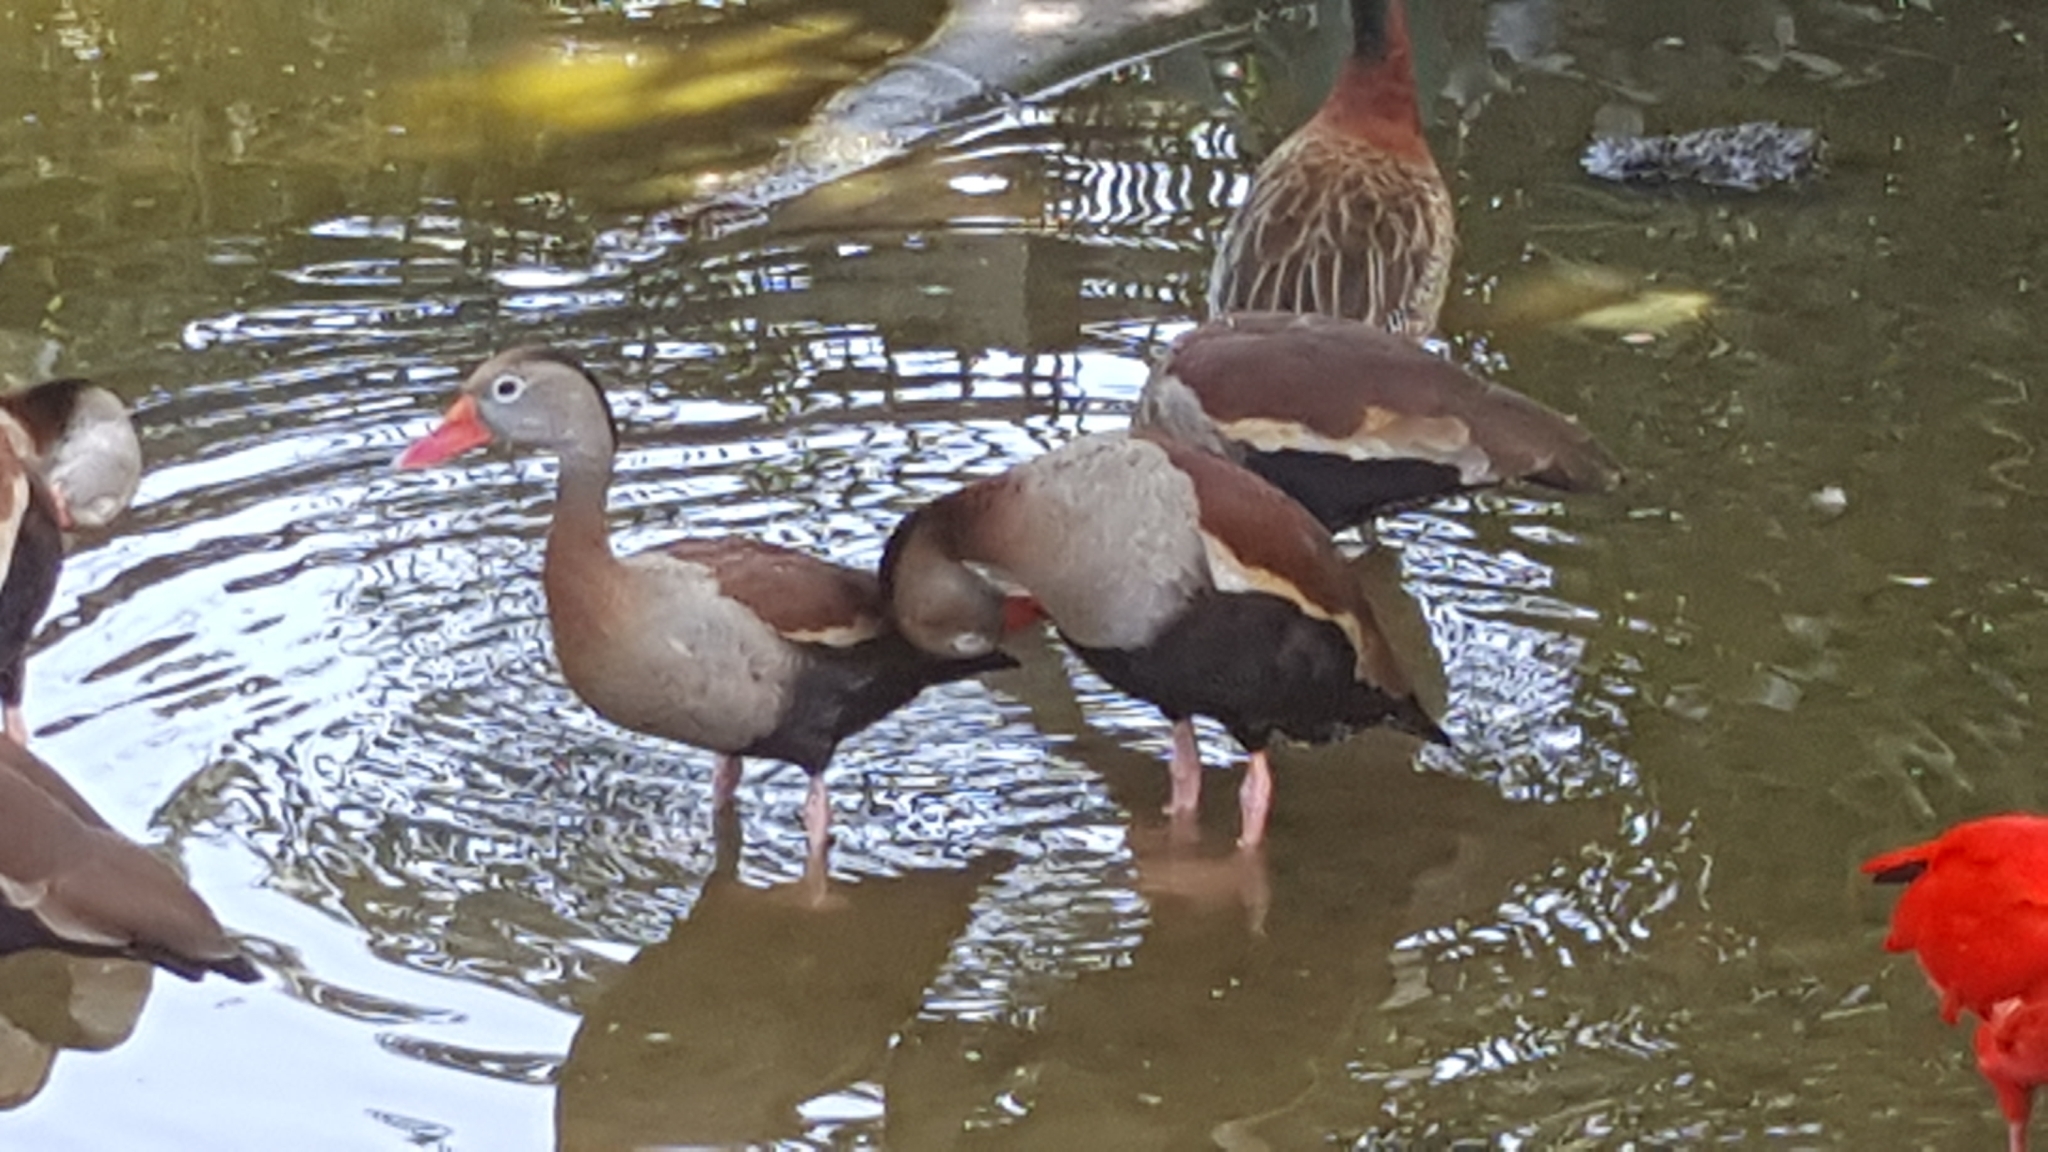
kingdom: Animalia
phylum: Chordata
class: Aves
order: Anseriformes
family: Anatidae
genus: Dendrocygna
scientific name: Dendrocygna autumnalis
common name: Black-bellied whistling duck
